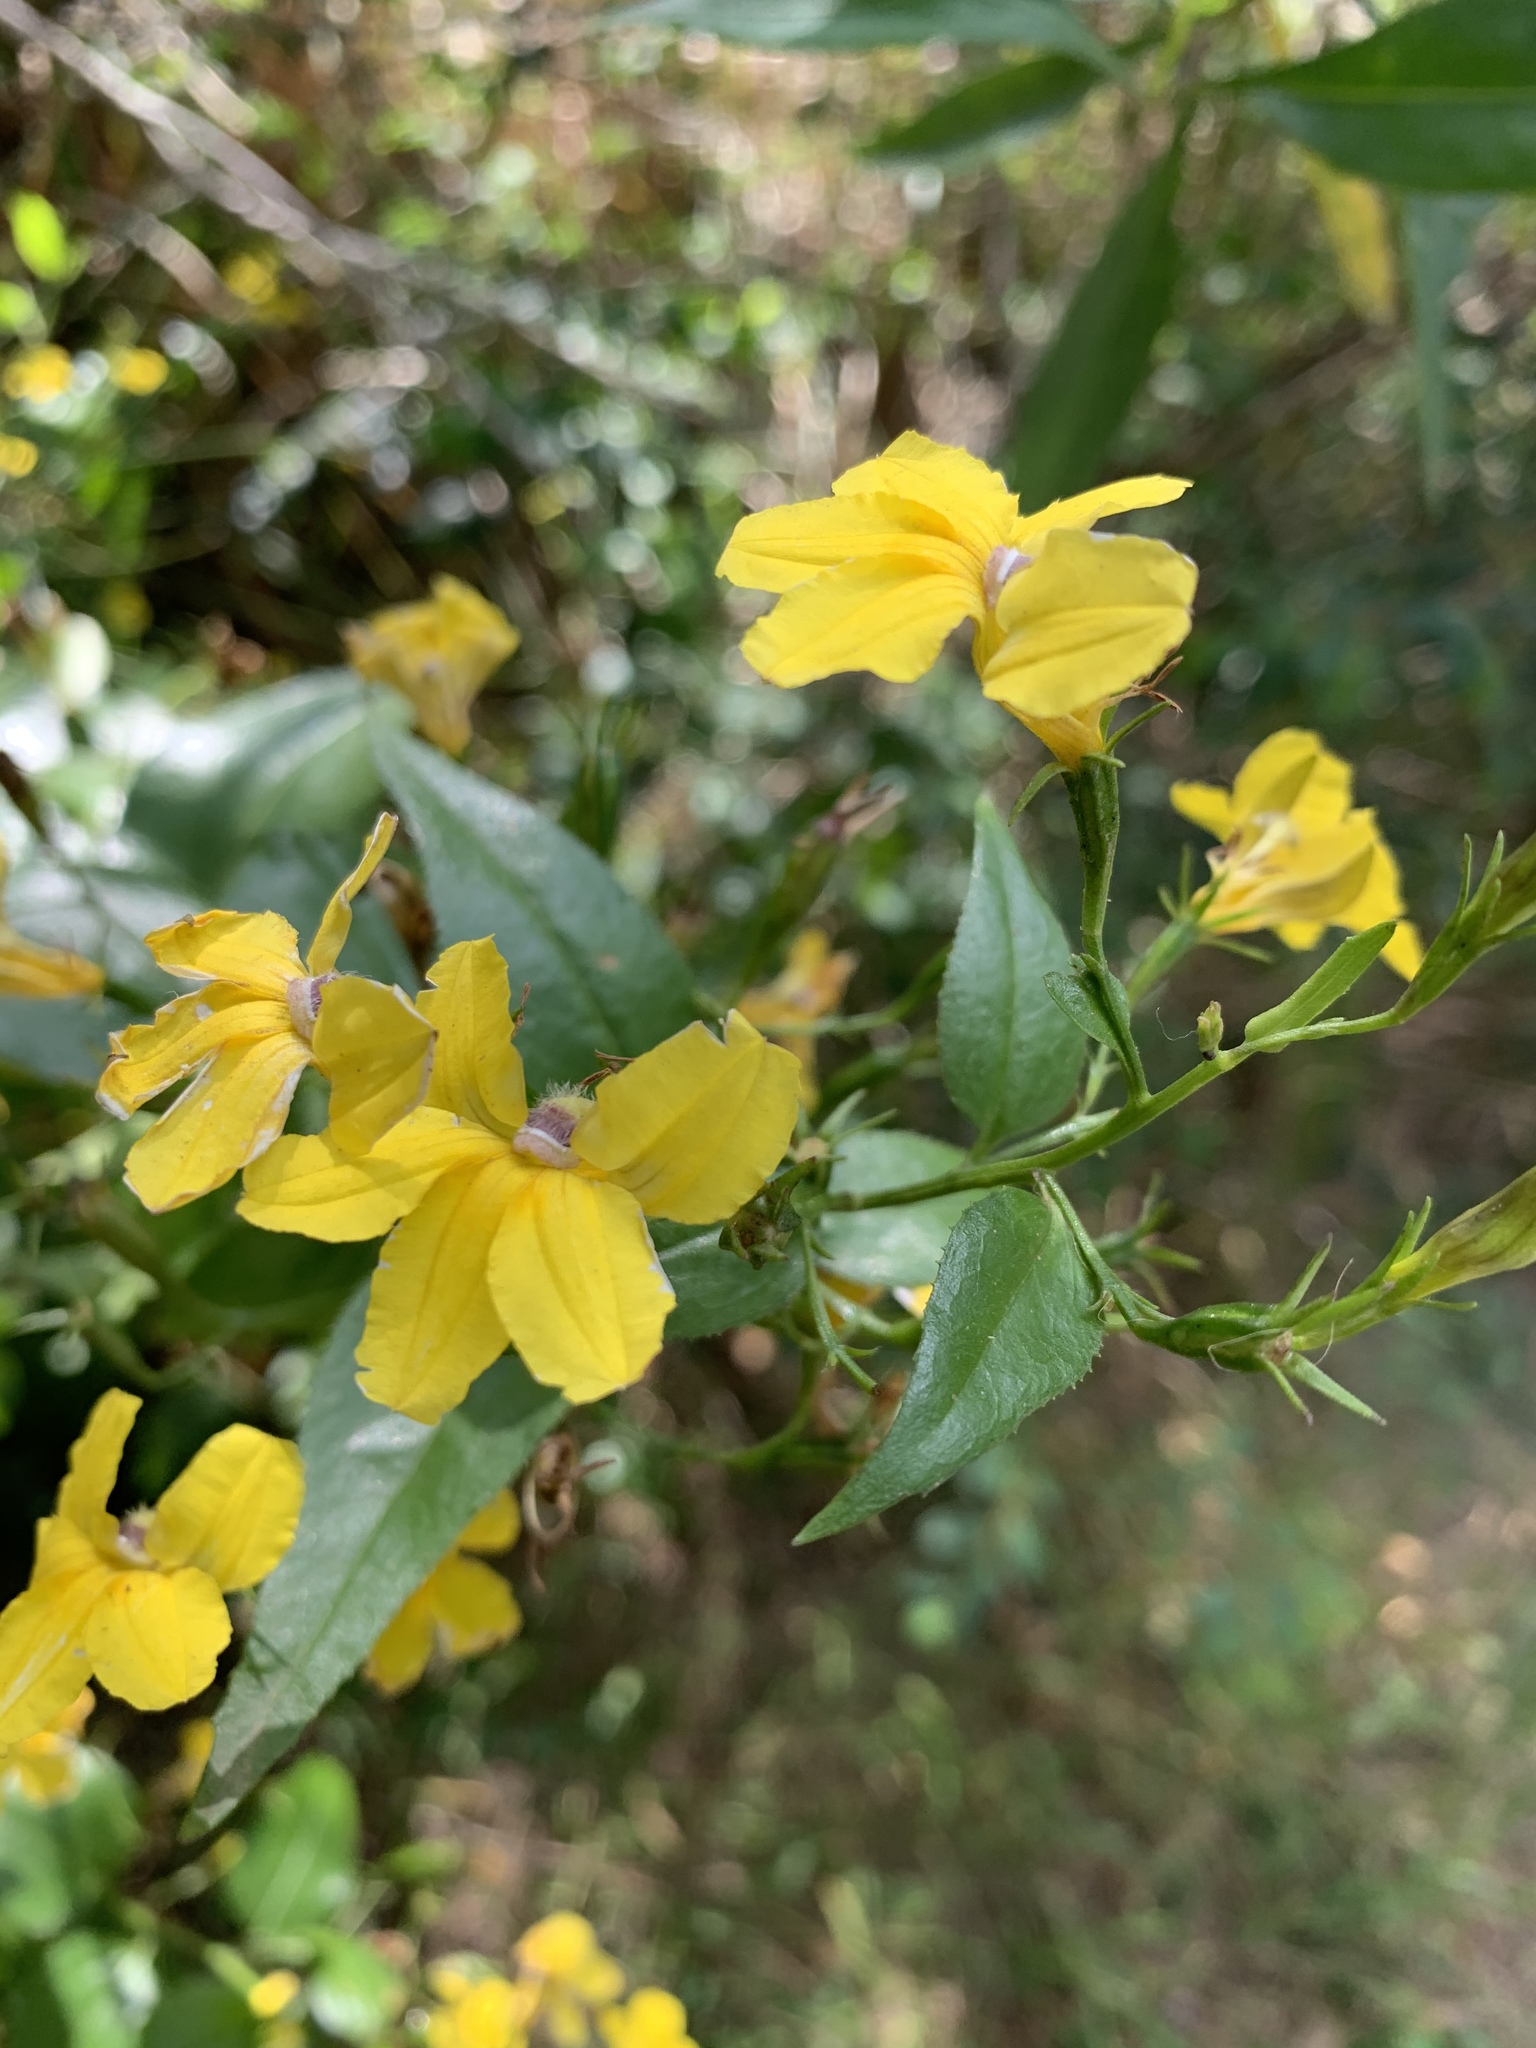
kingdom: Plantae
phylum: Tracheophyta
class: Magnoliopsida
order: Asterales
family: Goodeniaceae
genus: Goodenia
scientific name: Goodenia ovata
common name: Hop goodenia
